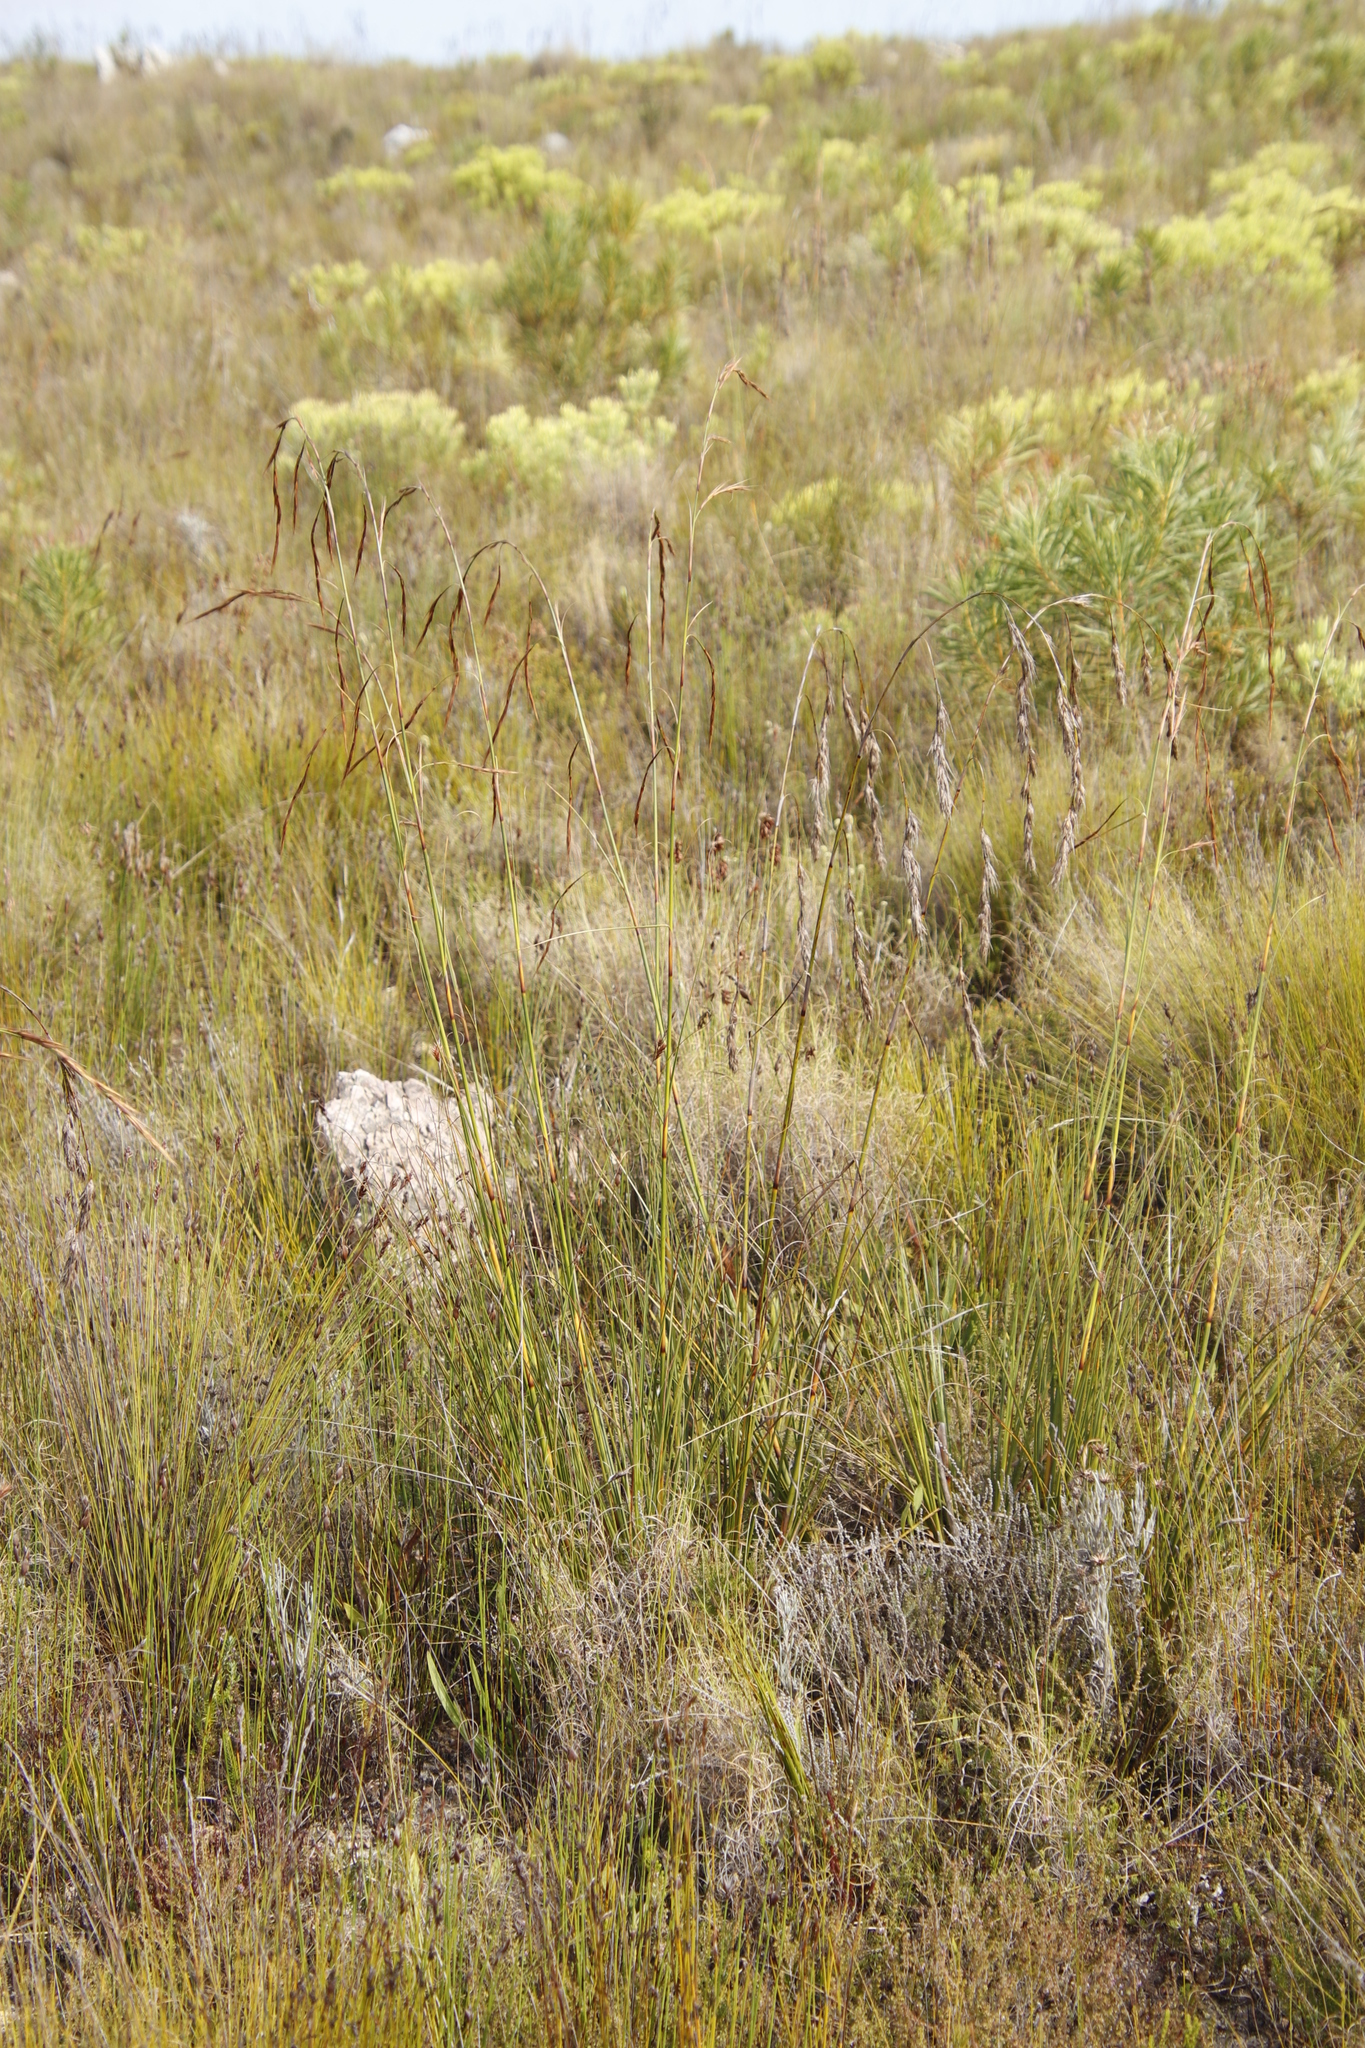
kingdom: Plantae
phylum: Tracheophyta
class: Liliopsida
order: Poales
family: Cyperaceae
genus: Tetraria
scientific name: Tetraria bromoides
